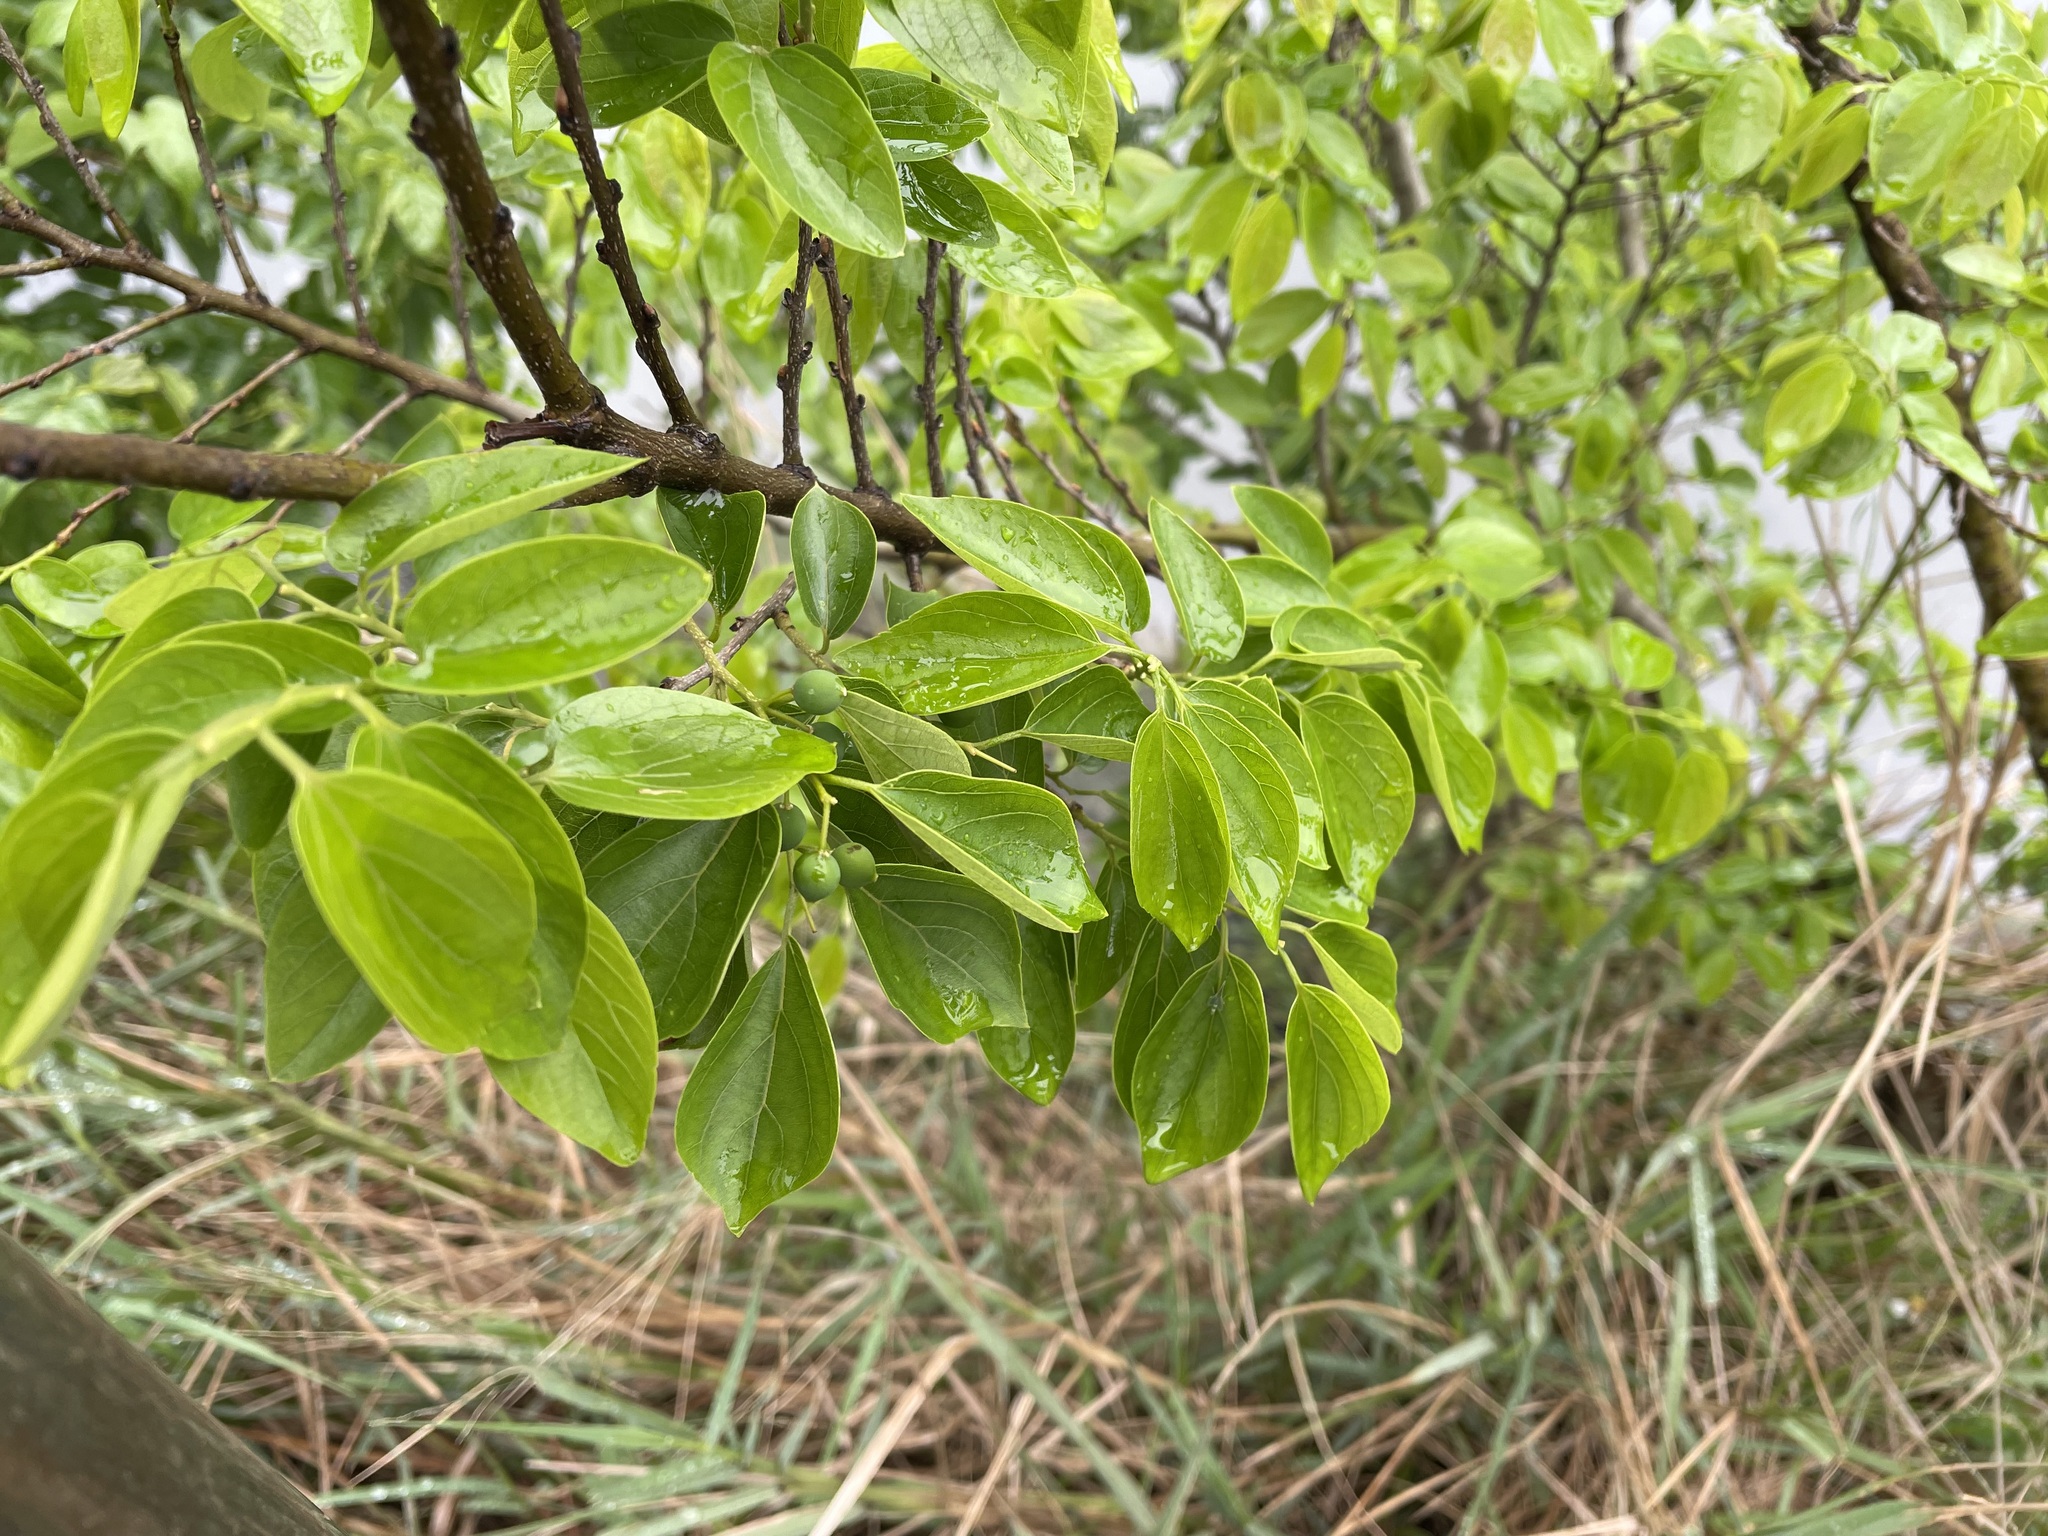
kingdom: Plantae
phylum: Tracheophyta
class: Magnoliopsida
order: Rosales
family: Cannabaceae
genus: Celtis
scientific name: Celtis sinensis
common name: Chinese hackberry
